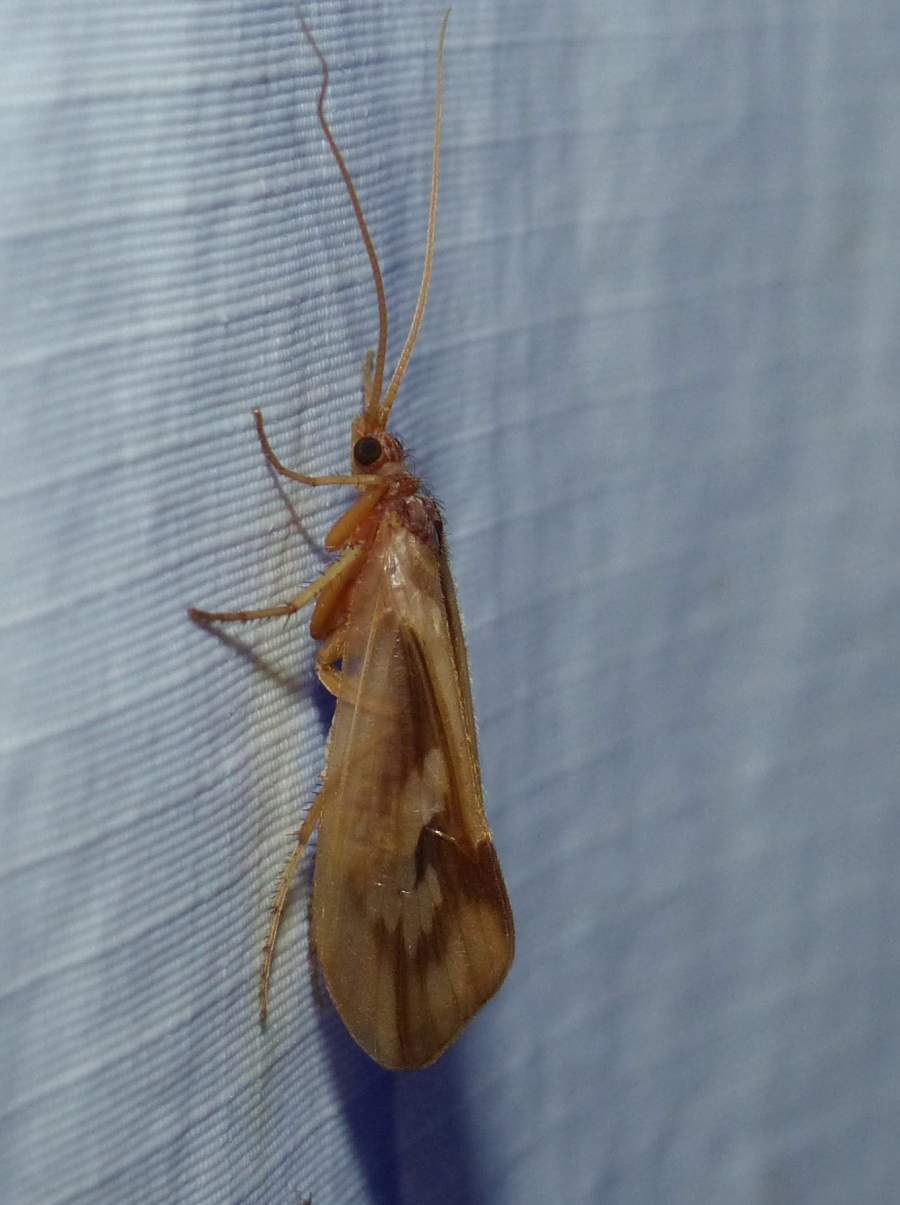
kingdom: Animalia
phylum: Arthropoda
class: Insecta
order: Trichoptera
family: Limnephilidae
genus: Platycentropus
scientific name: Platycentropus radiatus
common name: Chocolate-and-cream sedge
